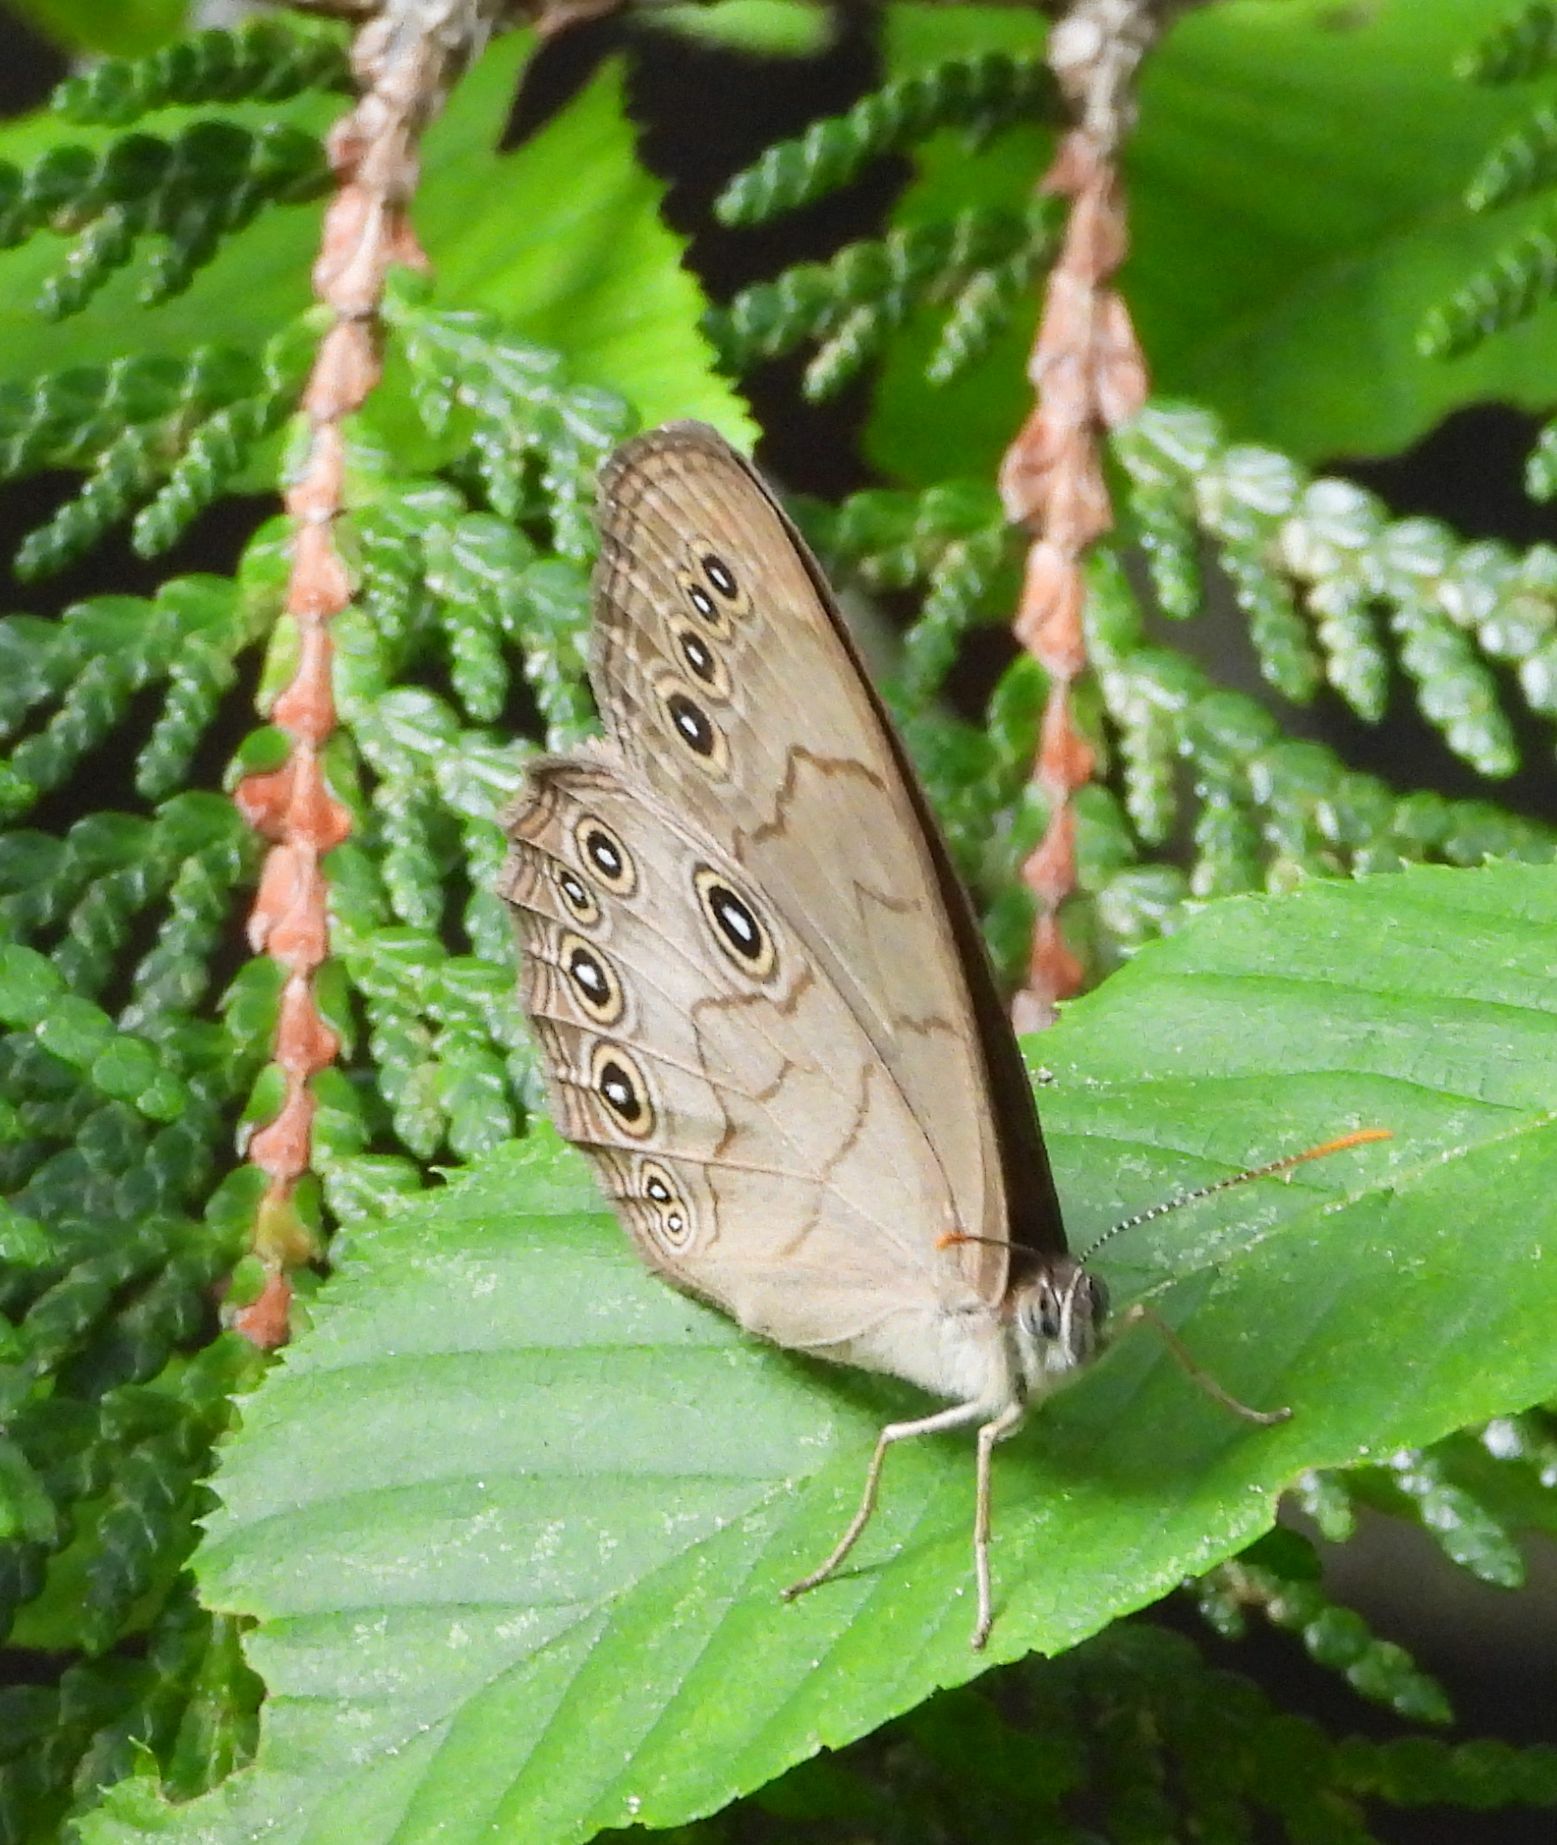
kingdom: Animalia
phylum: Arthropoda
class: Insecta
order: Lepidoptera
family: Nymphalidae
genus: Lethe
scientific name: Lethe eurydice
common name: Eyed brown
